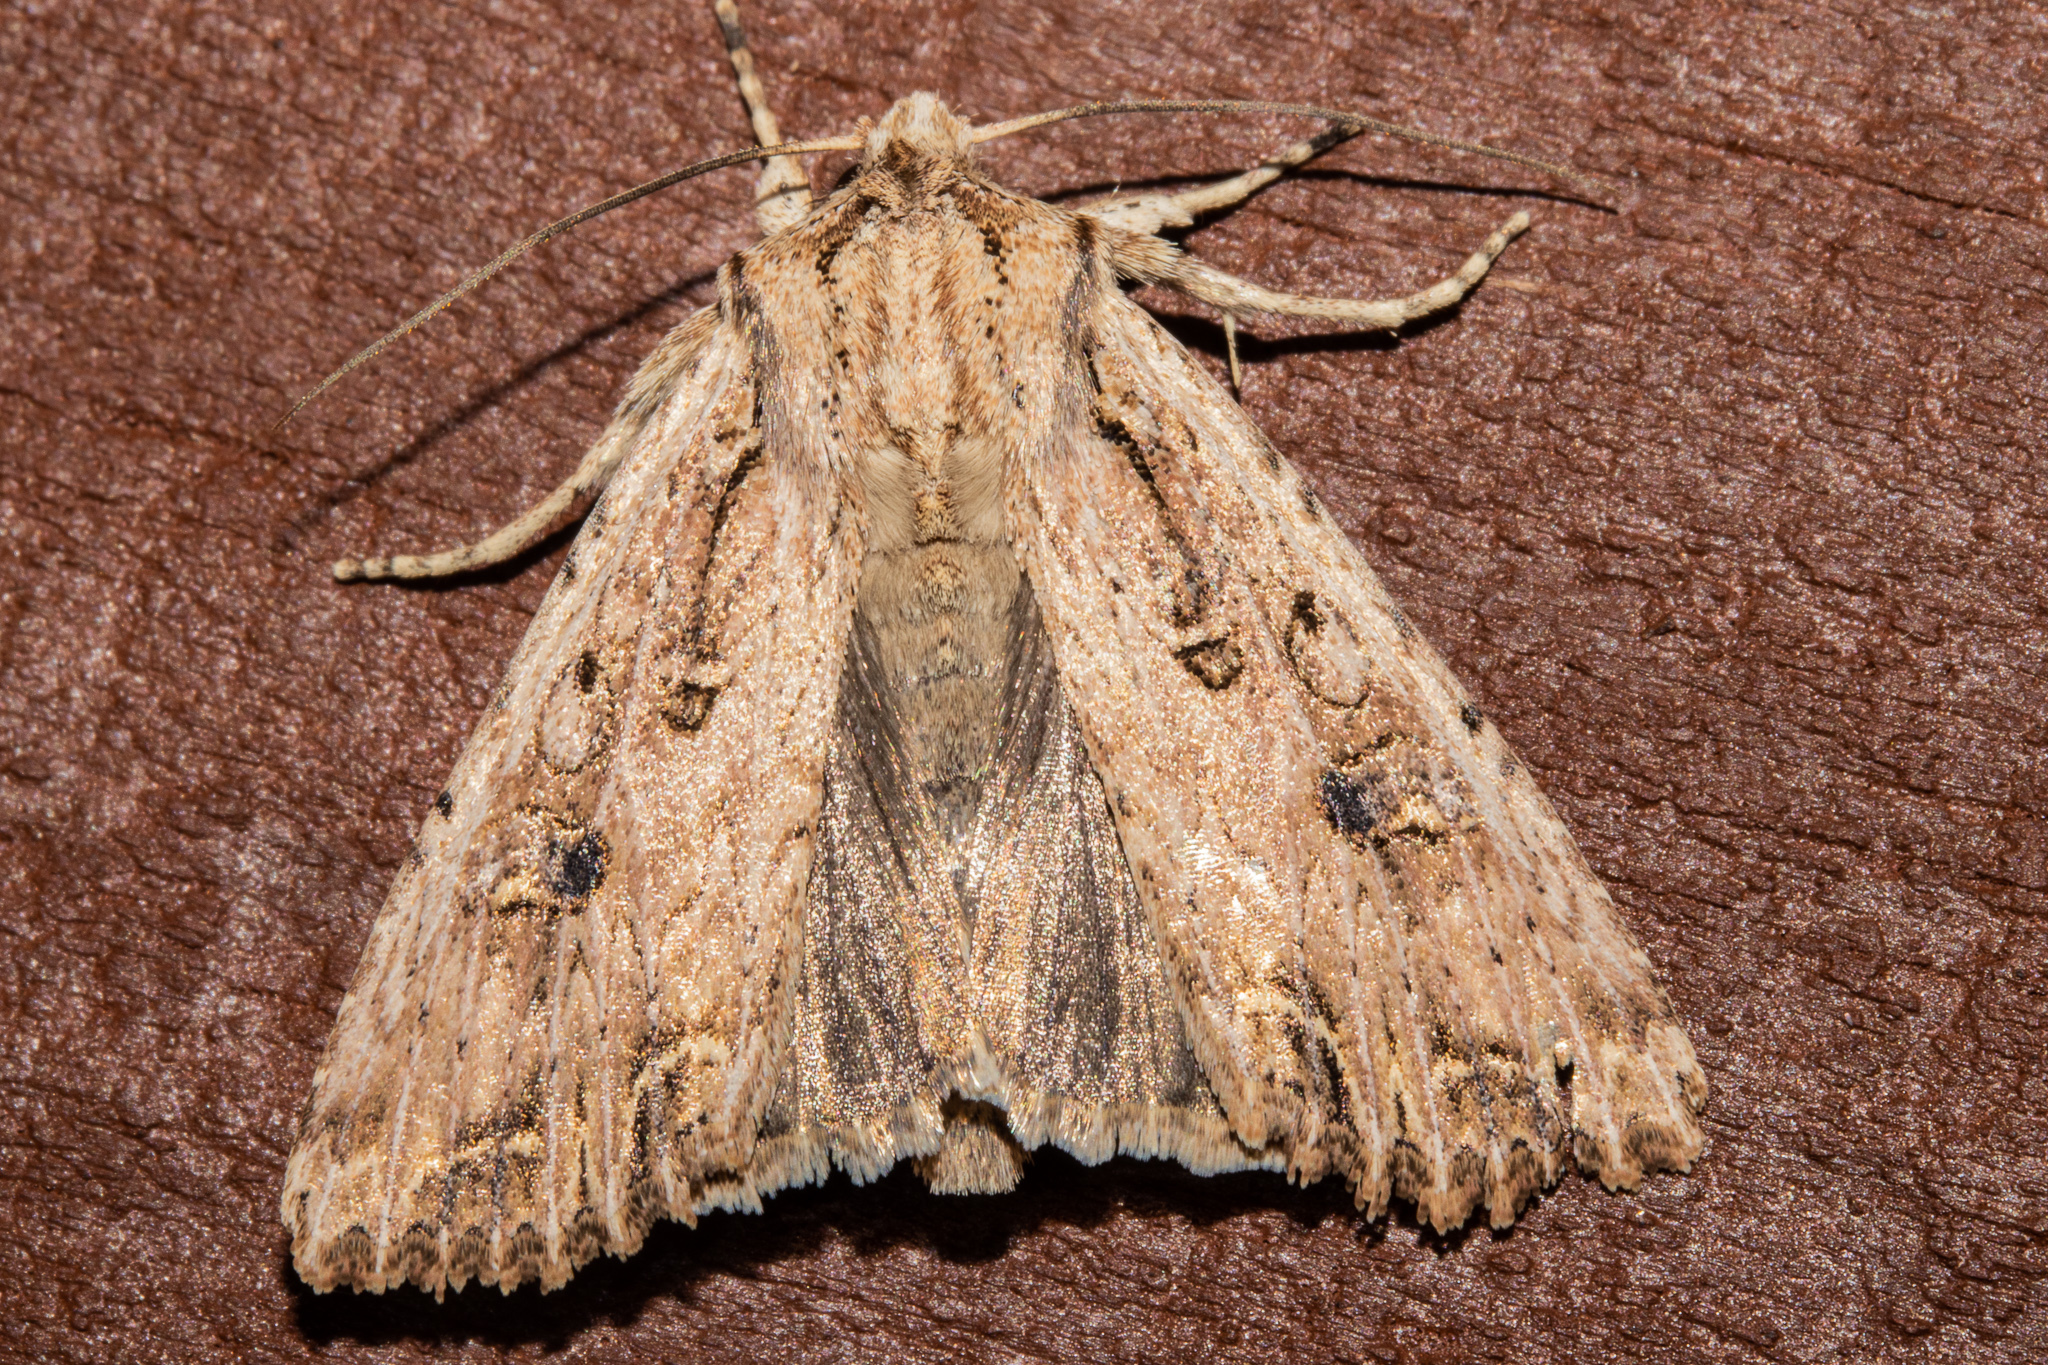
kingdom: Animalia
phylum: Arthropoda
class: Insecta
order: Lepidoptera
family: Noctuidae
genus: Ichneutica
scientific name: Ichneutica lignana
